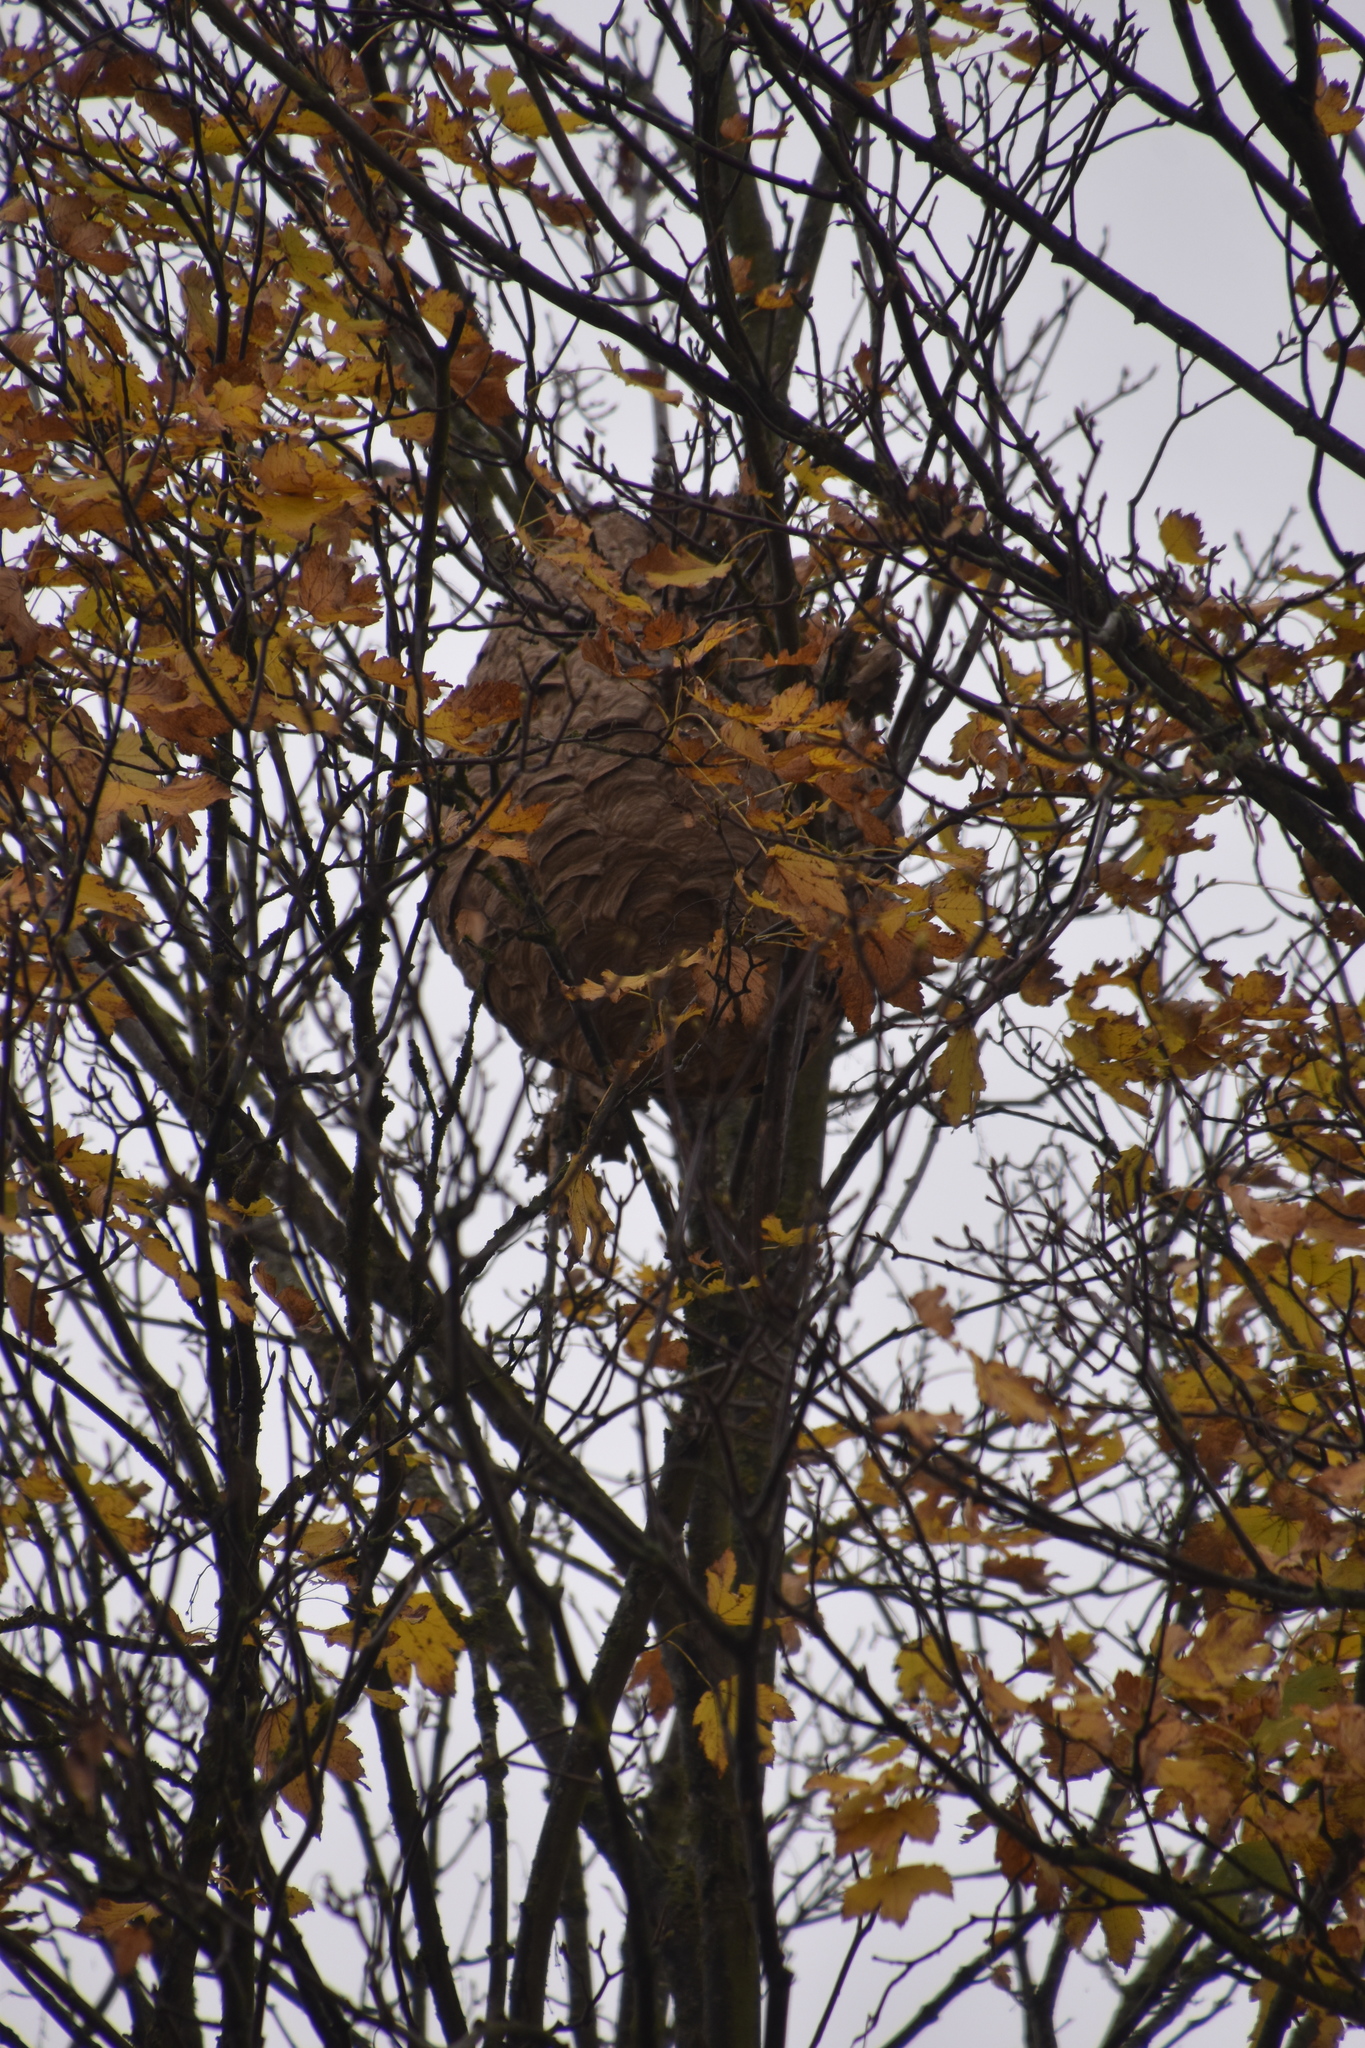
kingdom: Animalia
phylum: Arthropoda
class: Insecta
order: Hymenoptera
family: Vespidae
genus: Vespa
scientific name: Vespa velutina
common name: Asian hornet
